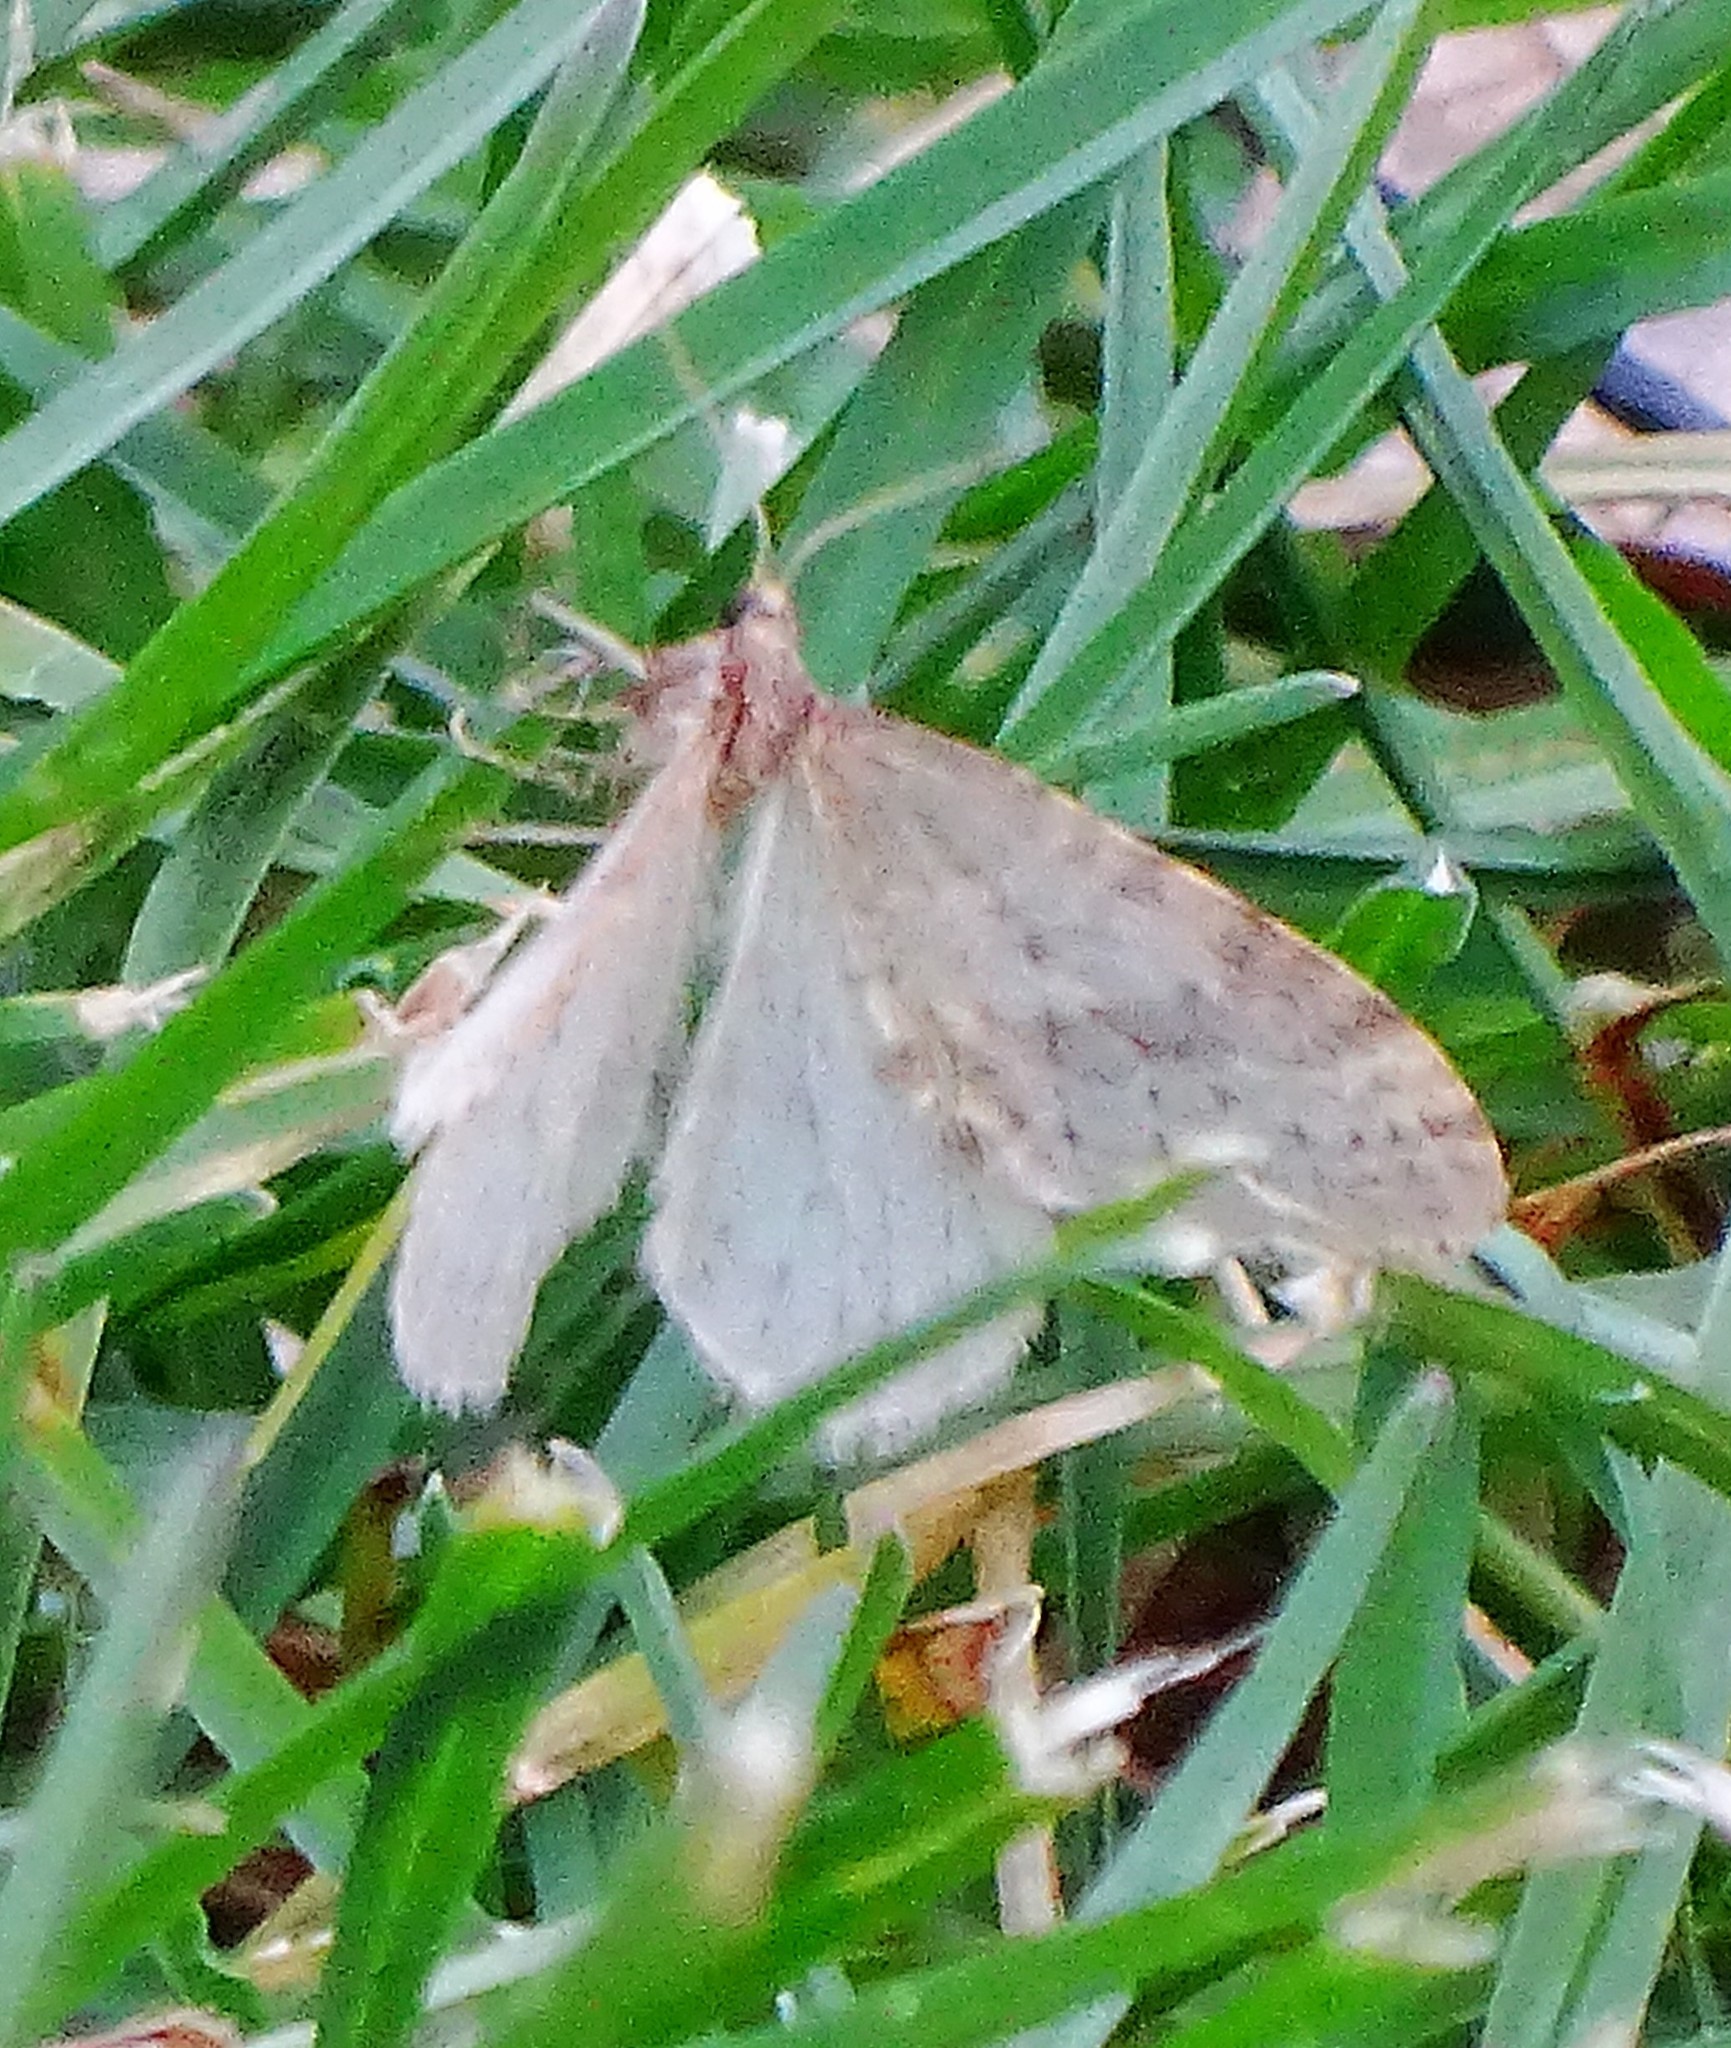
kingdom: Animalia
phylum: Arthropoda
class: Insecta
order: Lepidoptera
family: Geometridae
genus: Operophtera
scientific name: Operophtera bruceata
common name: Bruce spanworm
